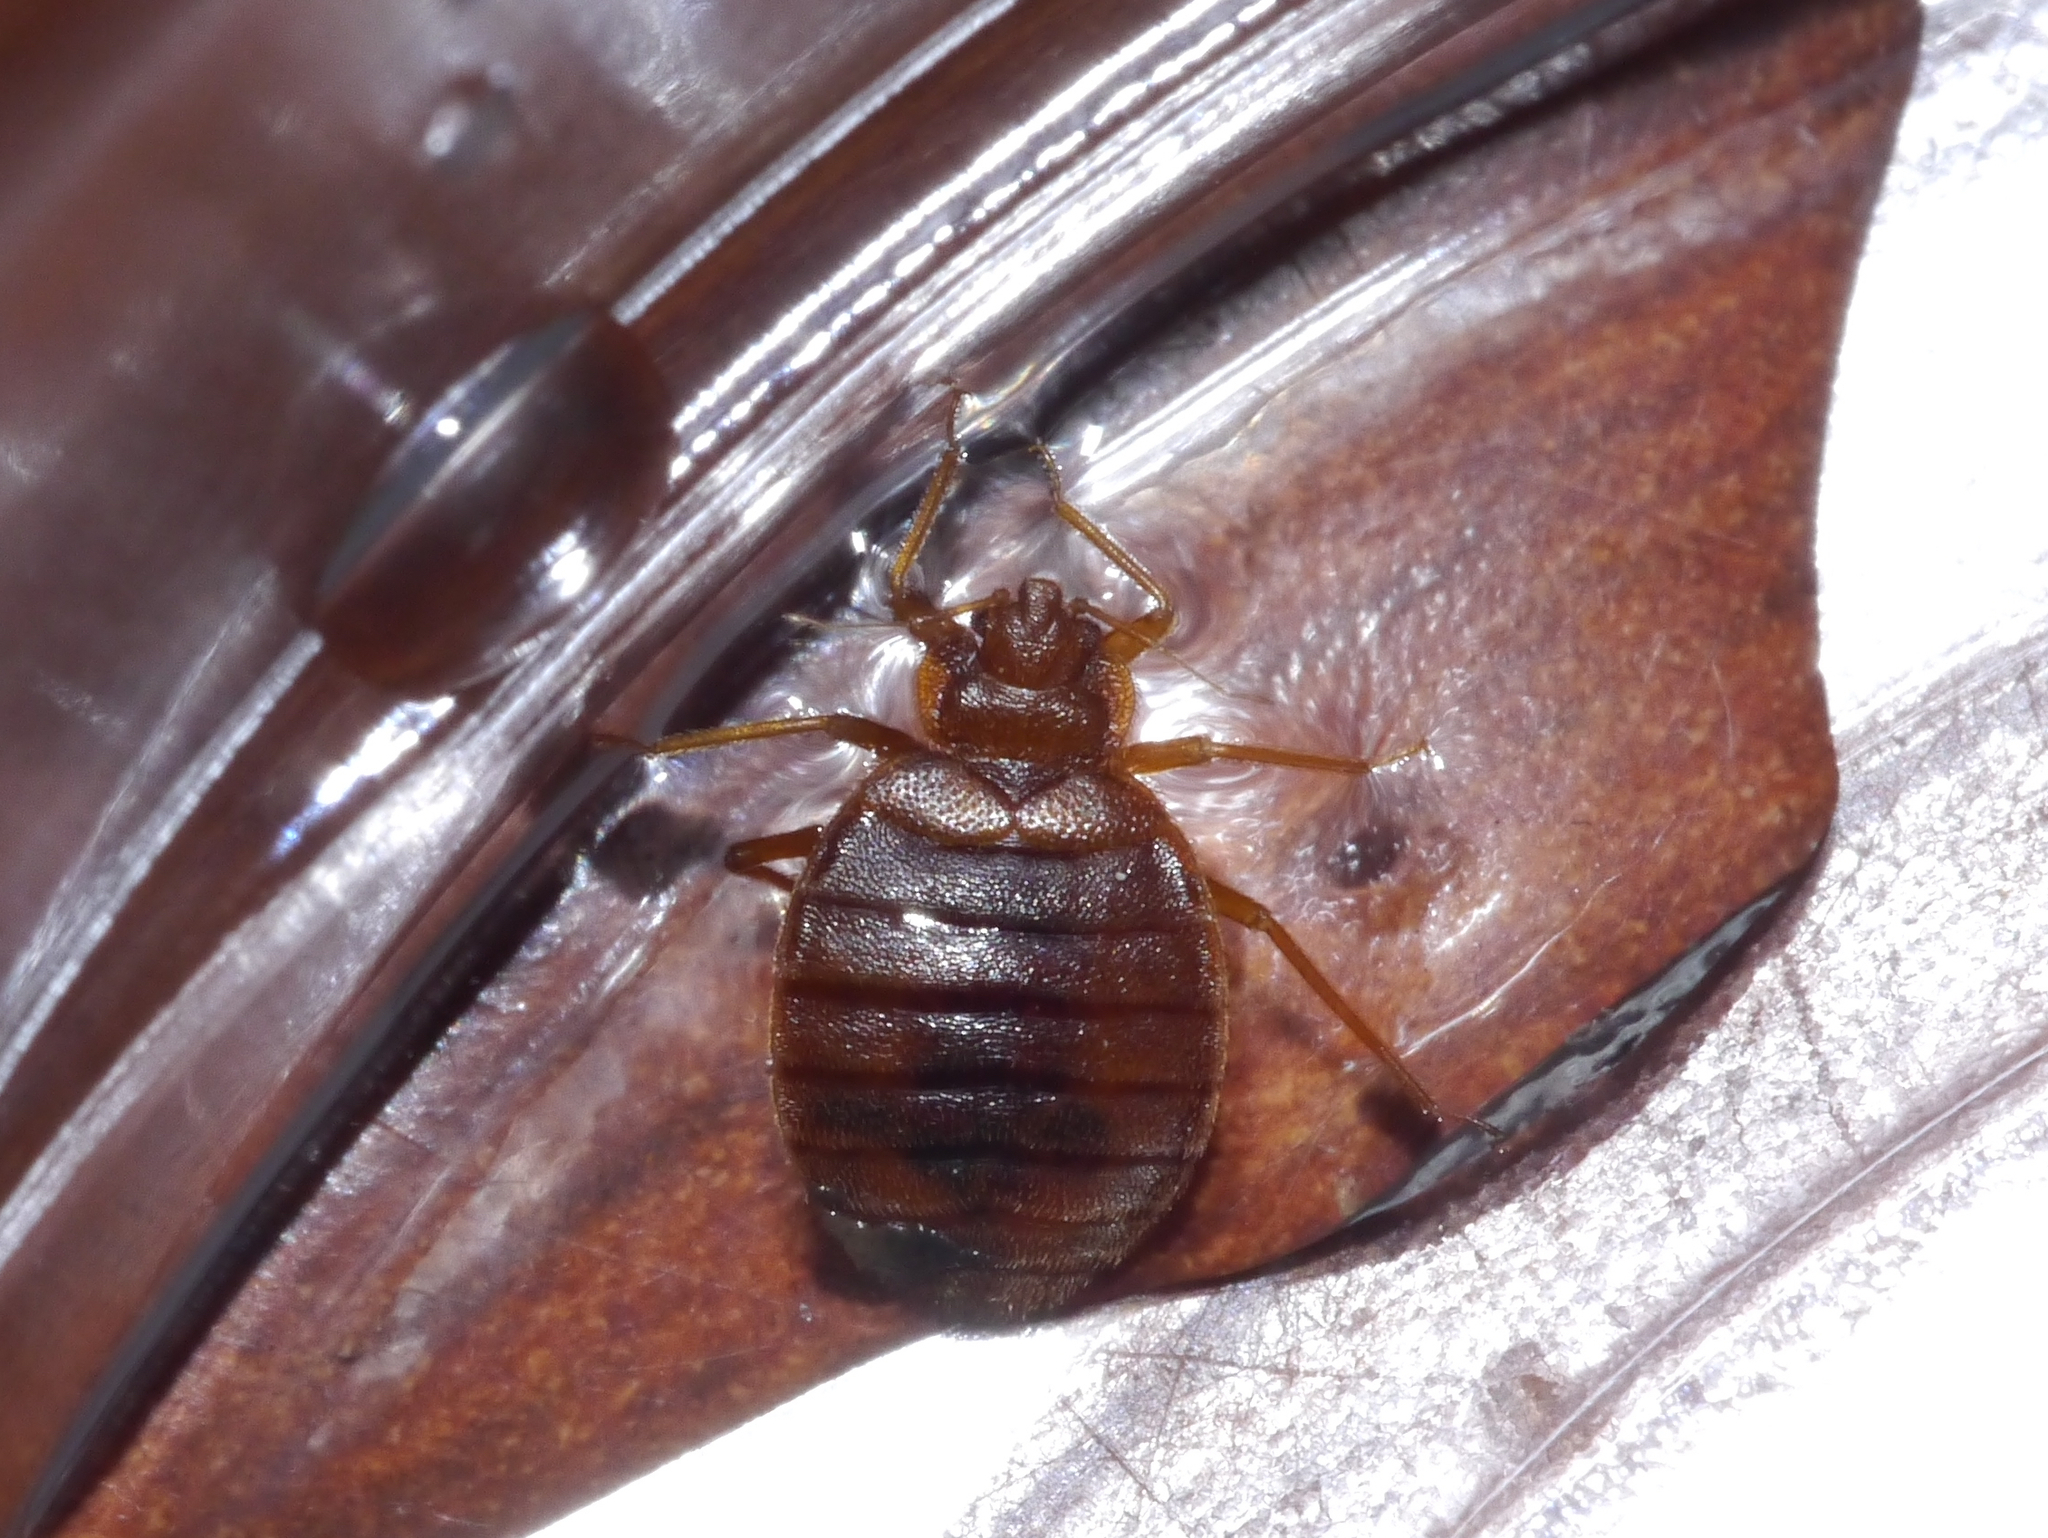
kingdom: Animalia
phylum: Arthropoda
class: Insecta
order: Hemiptera
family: Cimicidae
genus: Cimex
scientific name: Cimex lectularius
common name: Bed bug
